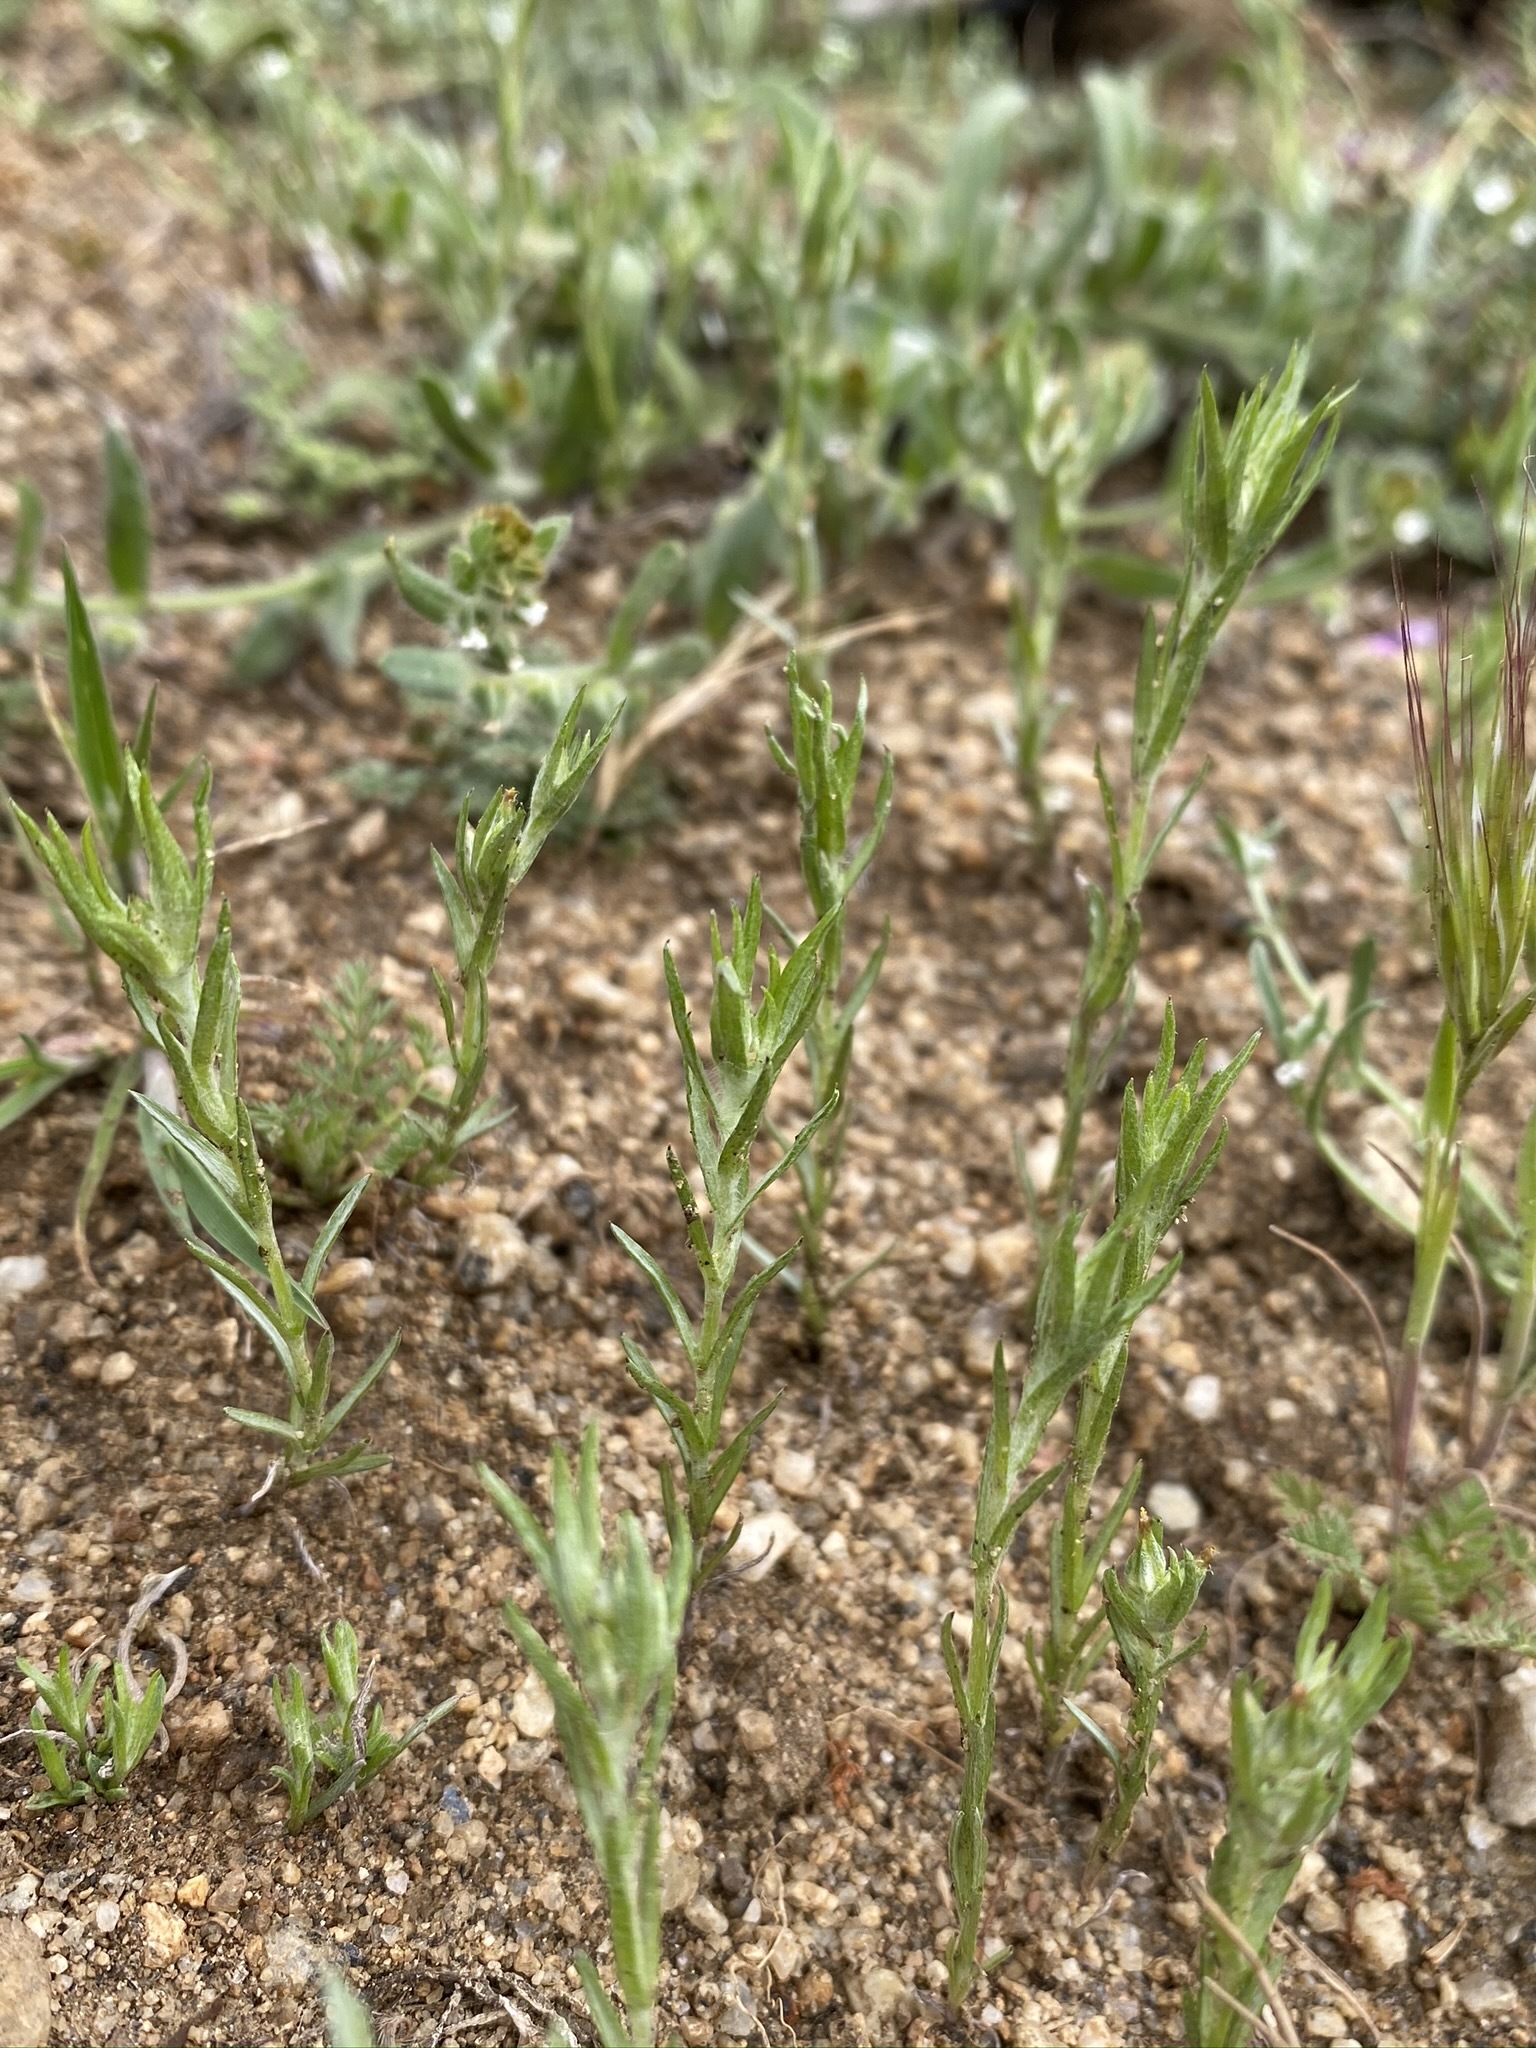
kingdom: Plantae
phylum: Tracheophyta
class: Magnoliopsida
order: Asterales
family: Asteraceae
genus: Logfia
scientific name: Logfia gallica
